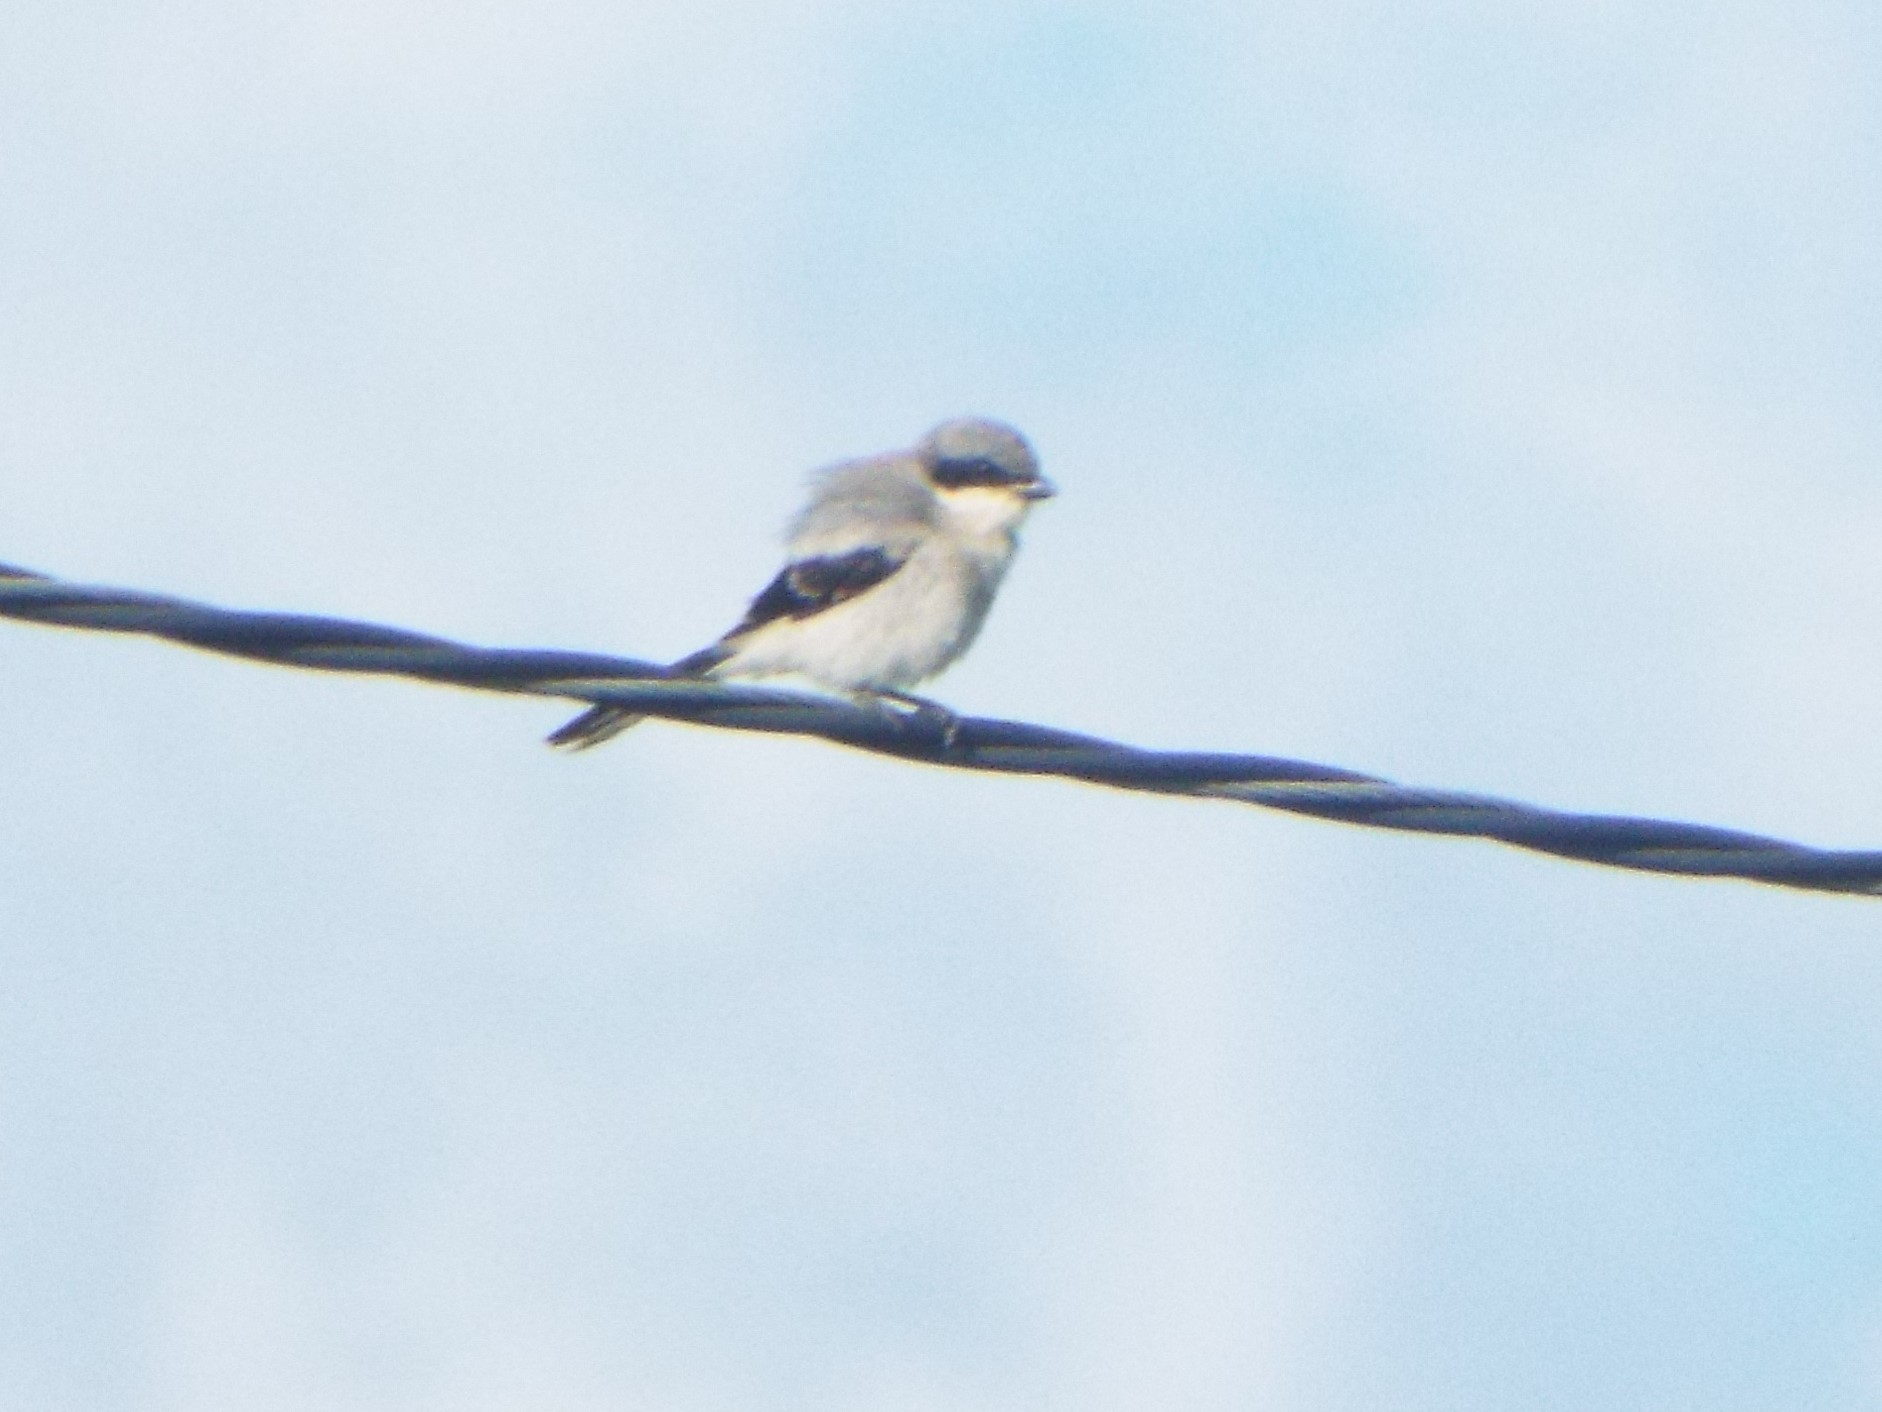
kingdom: Animalia
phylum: Chordata
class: Aves
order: Passeriformes
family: Laniidae
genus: Lanius
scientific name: Lanius ludovicianus
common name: Loggerhead shrike
